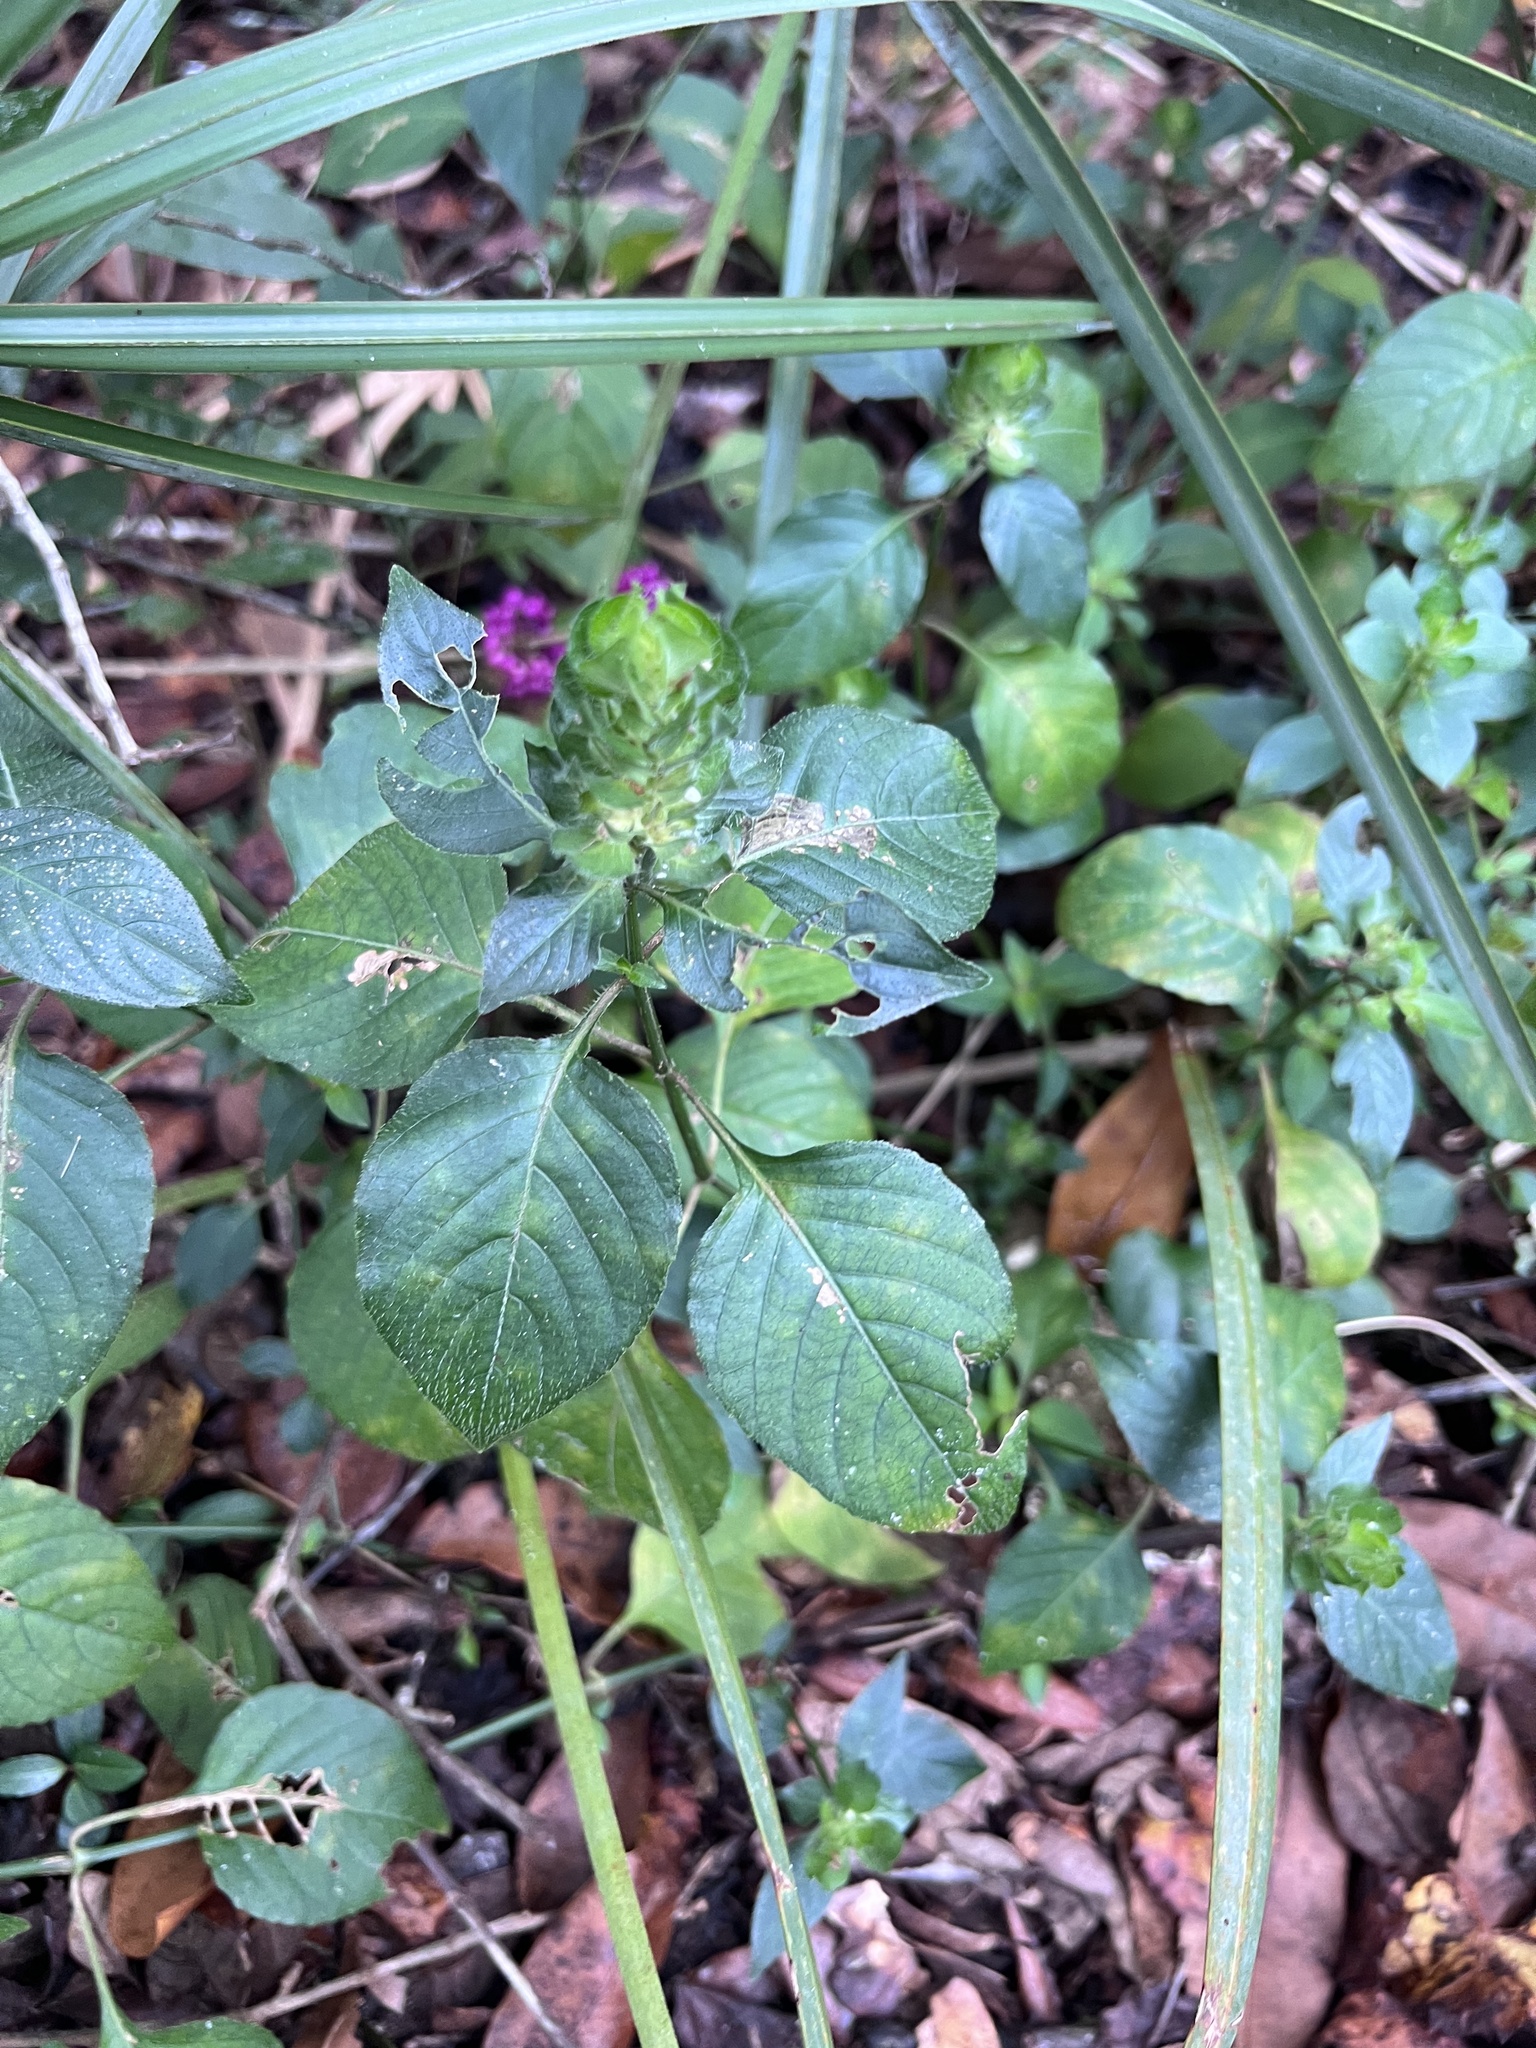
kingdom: Plantae
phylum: Tracheophyta
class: Magnoliopsida
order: Lamiales
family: Acanthaceae
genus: Ruellia
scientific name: Ruellia blechum
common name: Browne's blechum
